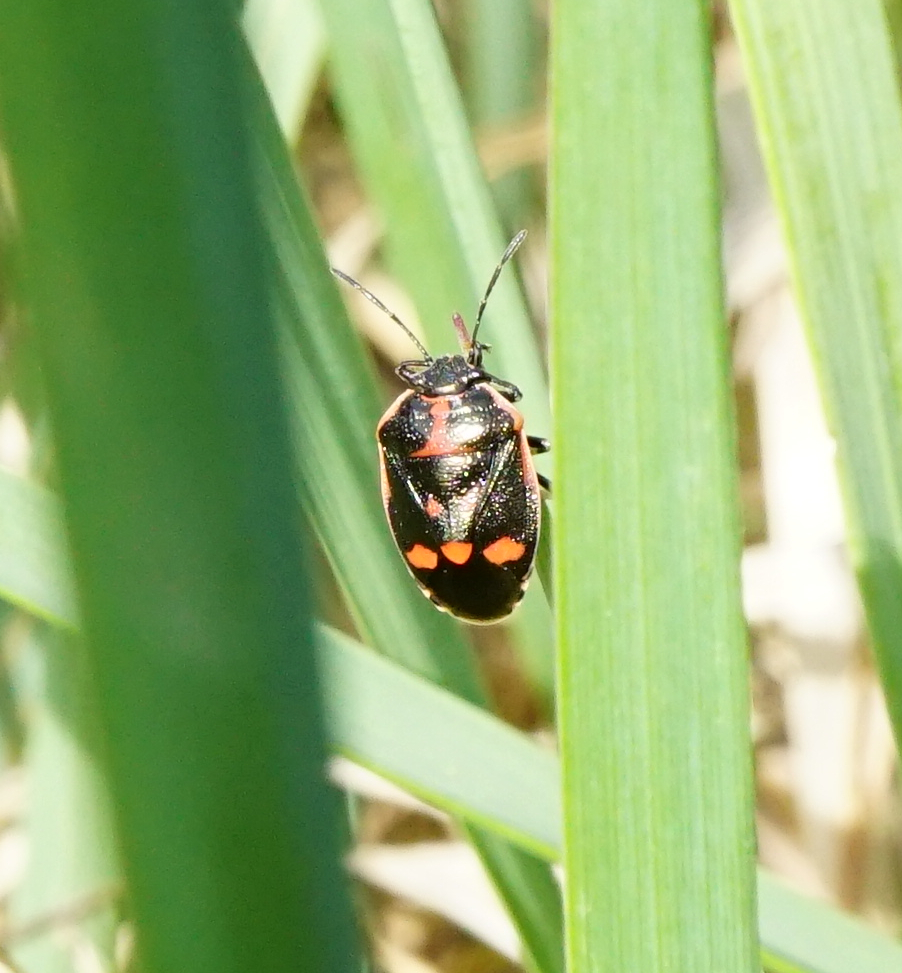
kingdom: Animalia
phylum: Arthropoda
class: Insecta
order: Hemiptera
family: Pentatomidae
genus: Eurydema
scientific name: Eurydema oleracea
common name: Cabbage bug
